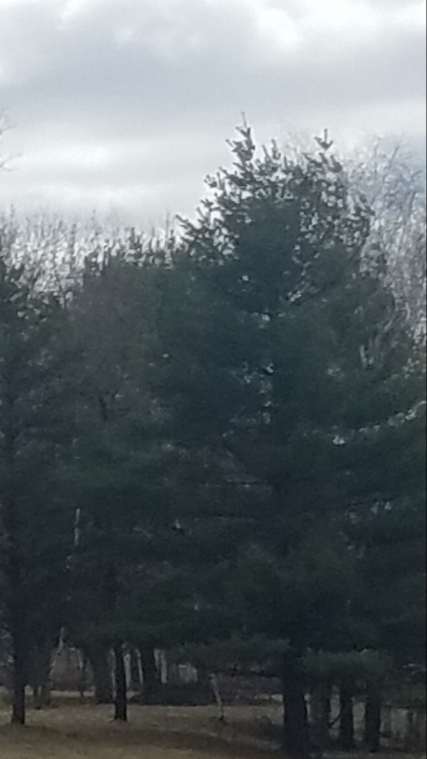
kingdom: Plantae
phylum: Tracheophyta
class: Pinopsida
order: Pinales
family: Pinaceae
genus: Pinus
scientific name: Pinus strobus
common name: Weymouth pine
